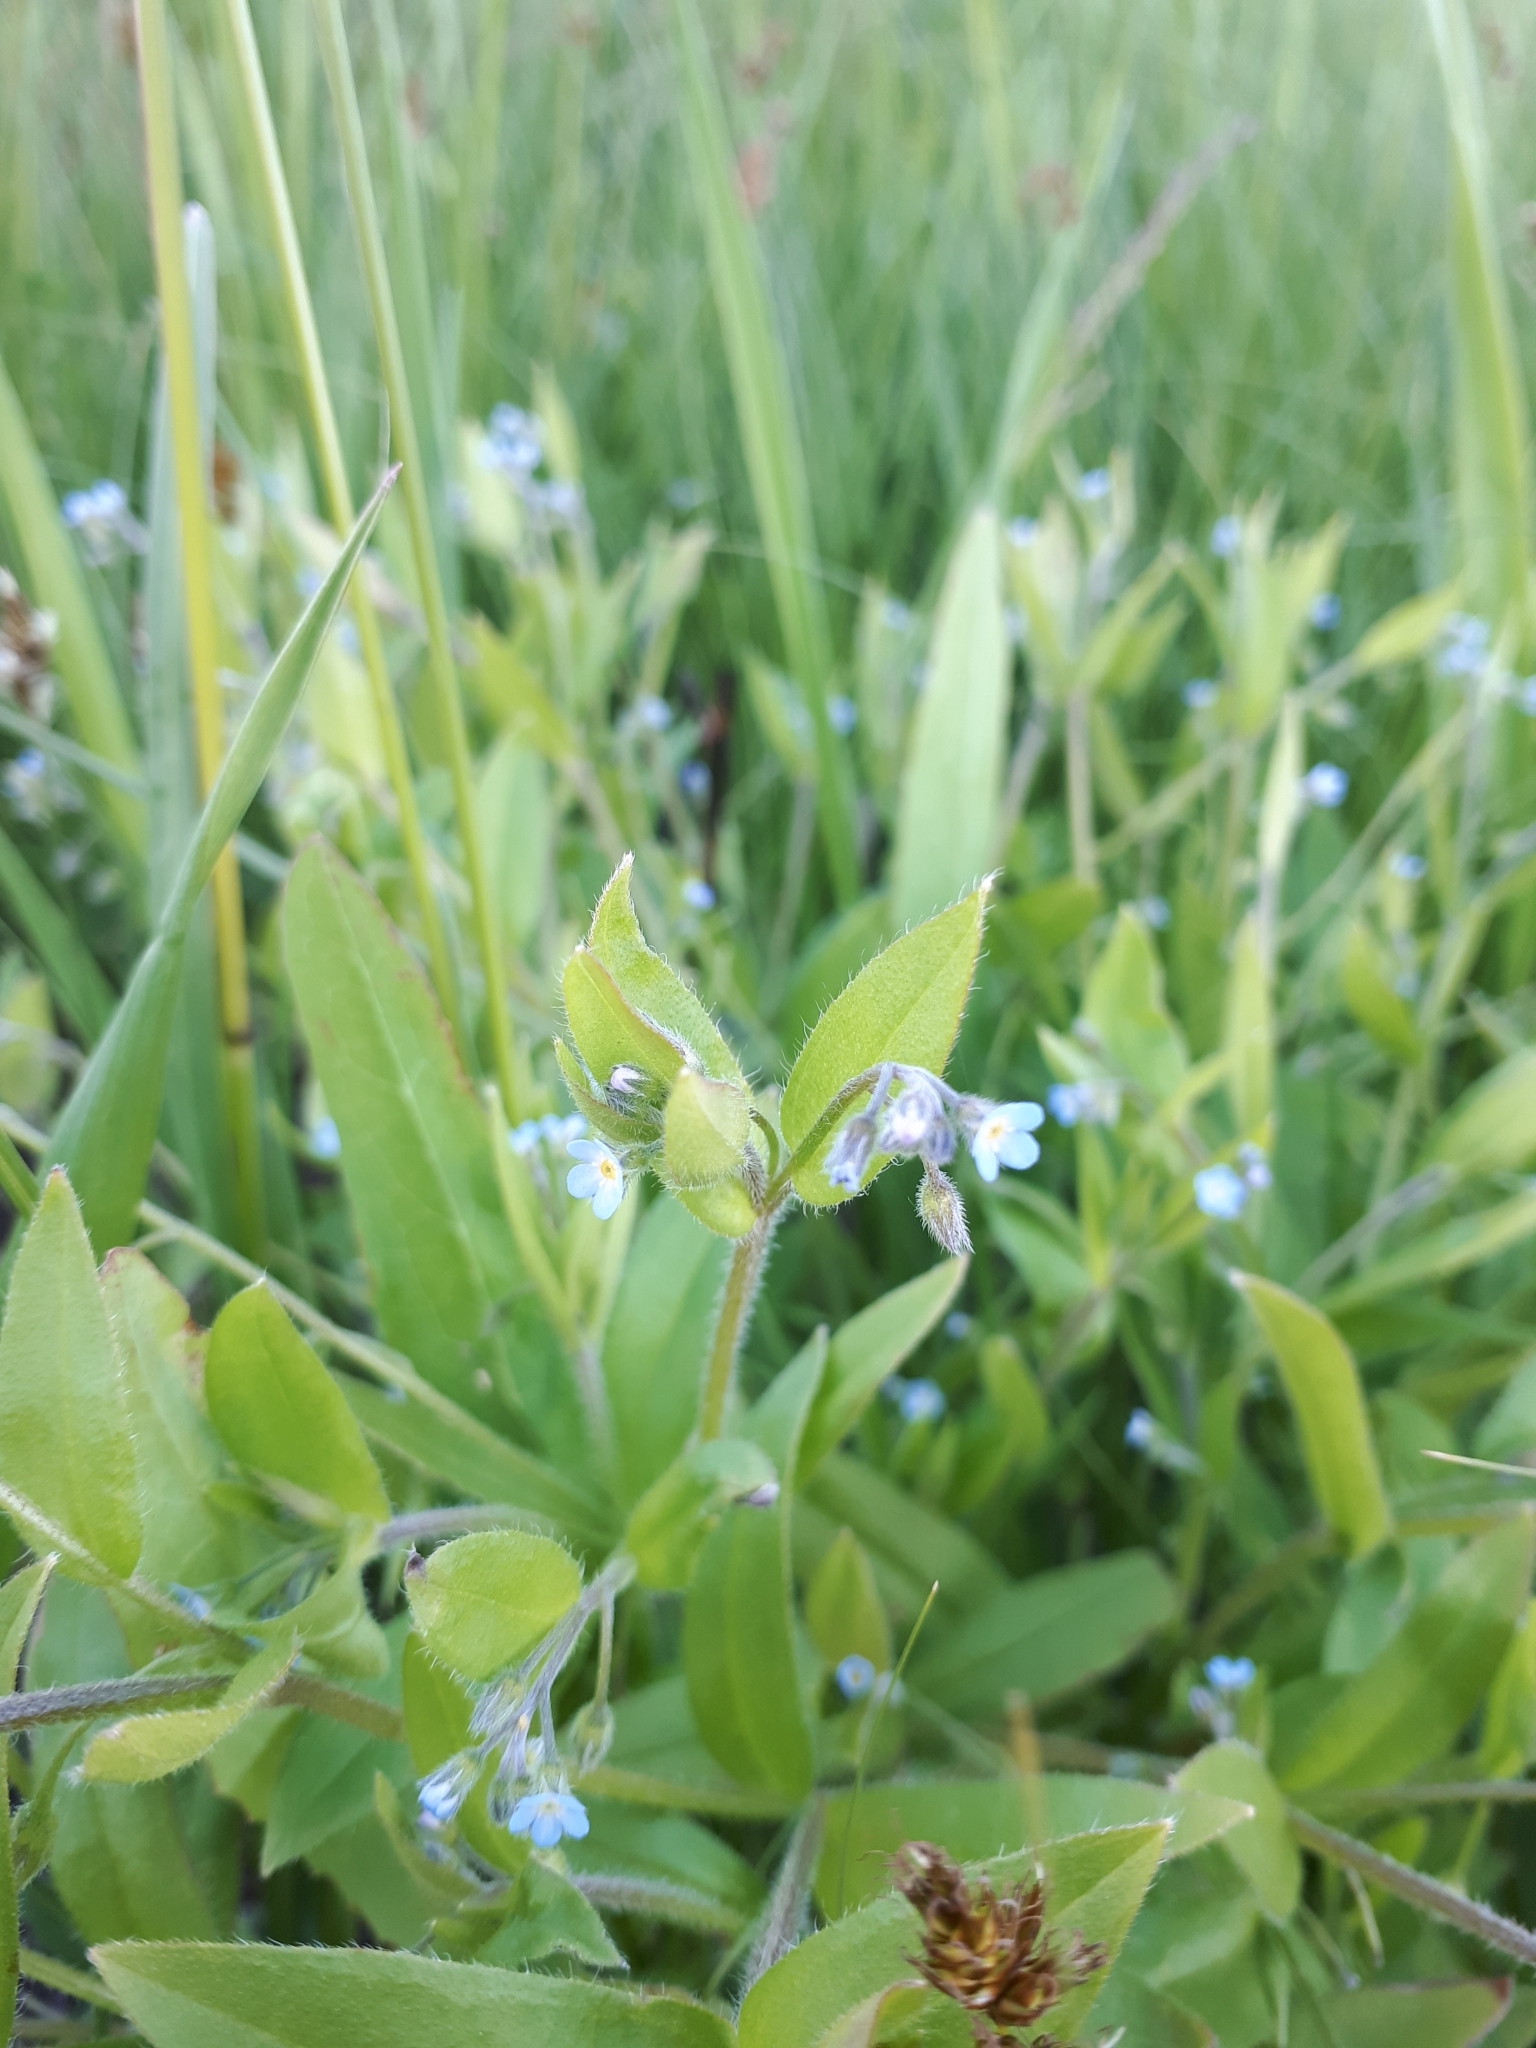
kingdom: Plantae
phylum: Tracheophyta
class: Magnoliopsida
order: Boraginales
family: Boraginaceae
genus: Myosotis
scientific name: Myosotis arvensis
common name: Field forget-me-not
